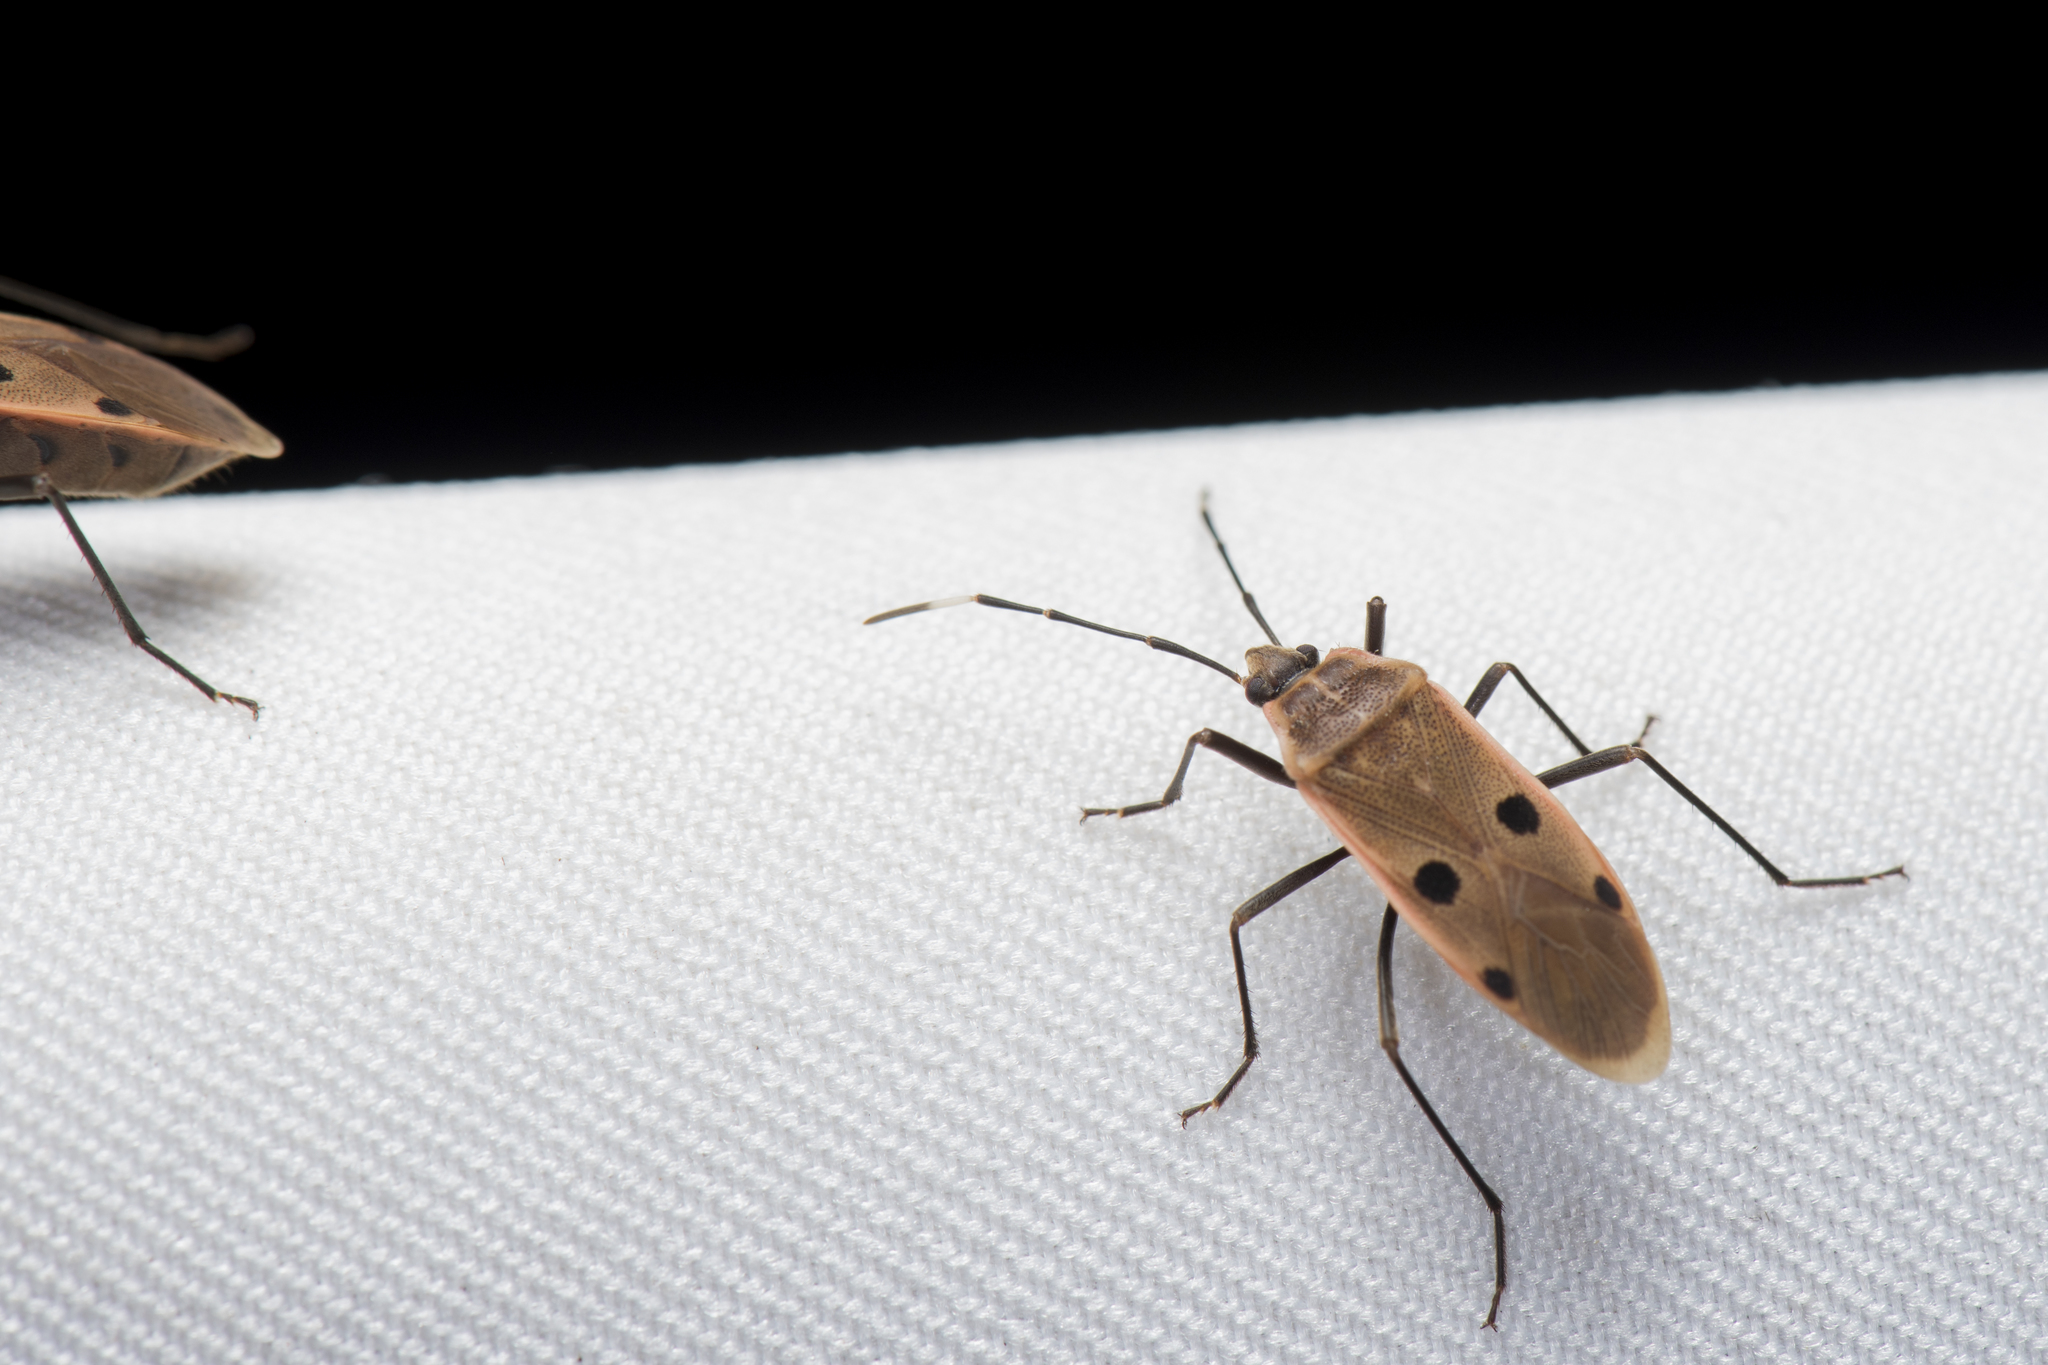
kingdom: Animalia
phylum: Arthropoda
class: Insecta
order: Hemiptera
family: Largidae
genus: Physopelta
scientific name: Physopelta quadriguttata
